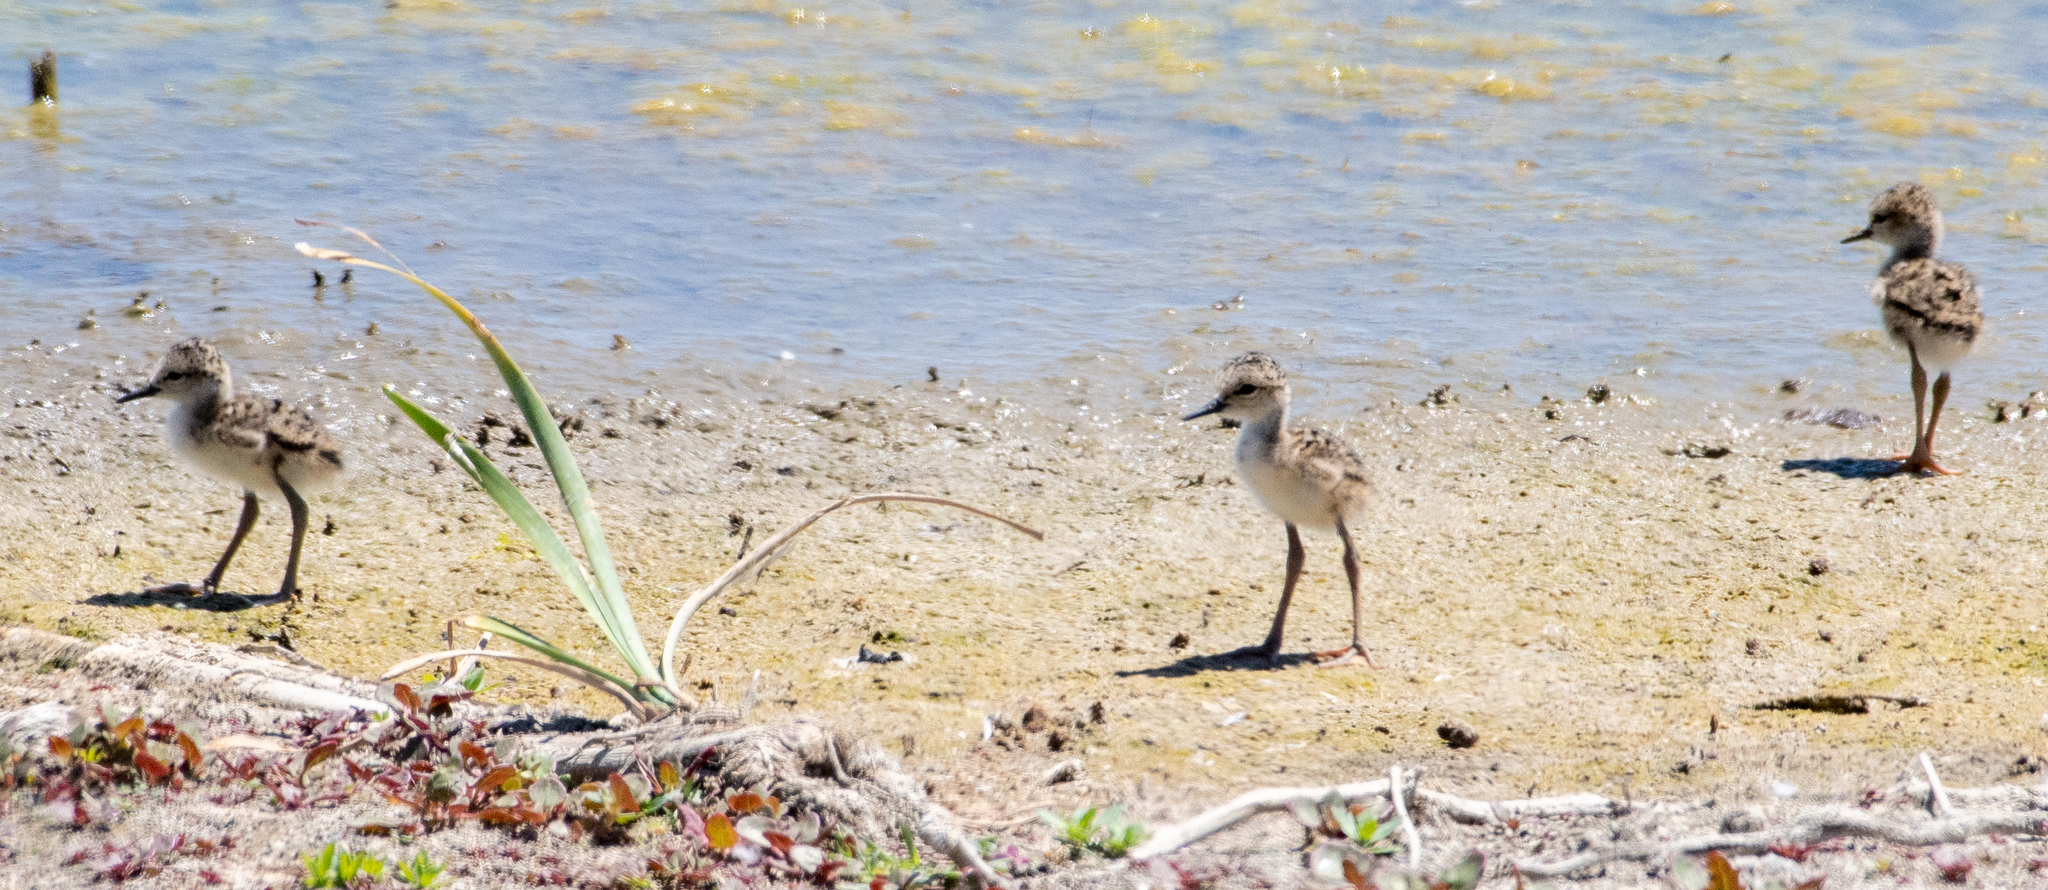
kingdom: Animalia
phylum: Chordata
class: Aves
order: Charadriiformes
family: Recurvirostridae
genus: Himantopus
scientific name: Himantopus mexicanus
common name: Black-necked stilt
